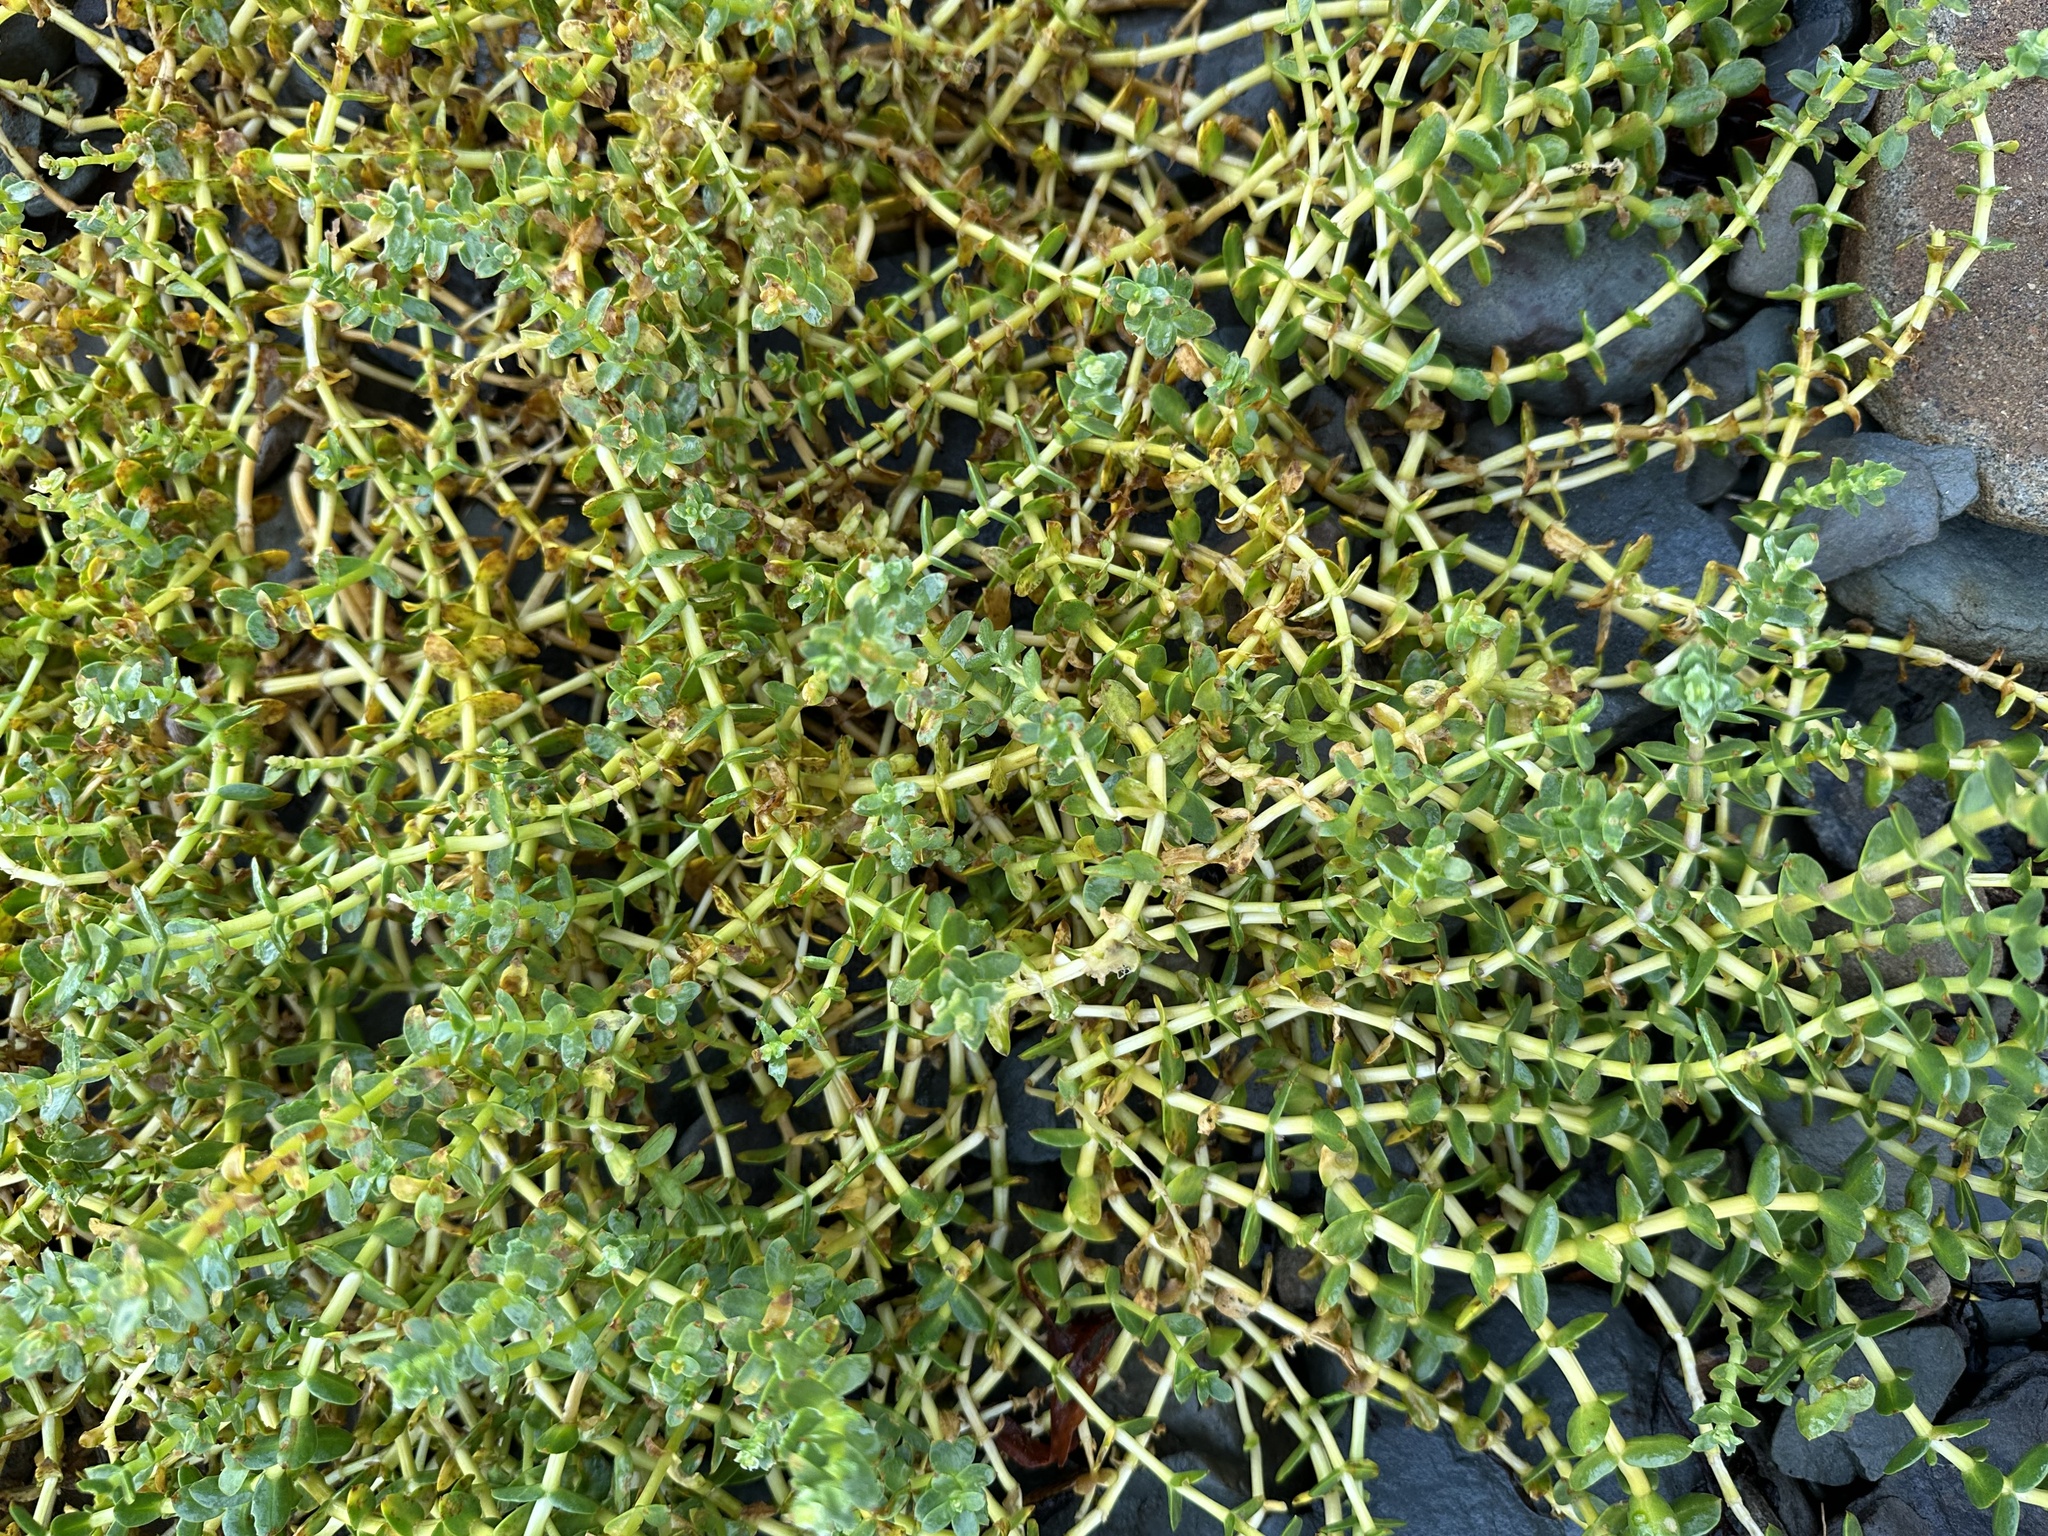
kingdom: Plantae
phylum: Tracheophyta
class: Magnoliopsida
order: Caryophyllales
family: Caryophyllaceae
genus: Honckenya
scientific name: Honckenya peploides
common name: Sea sandwort
